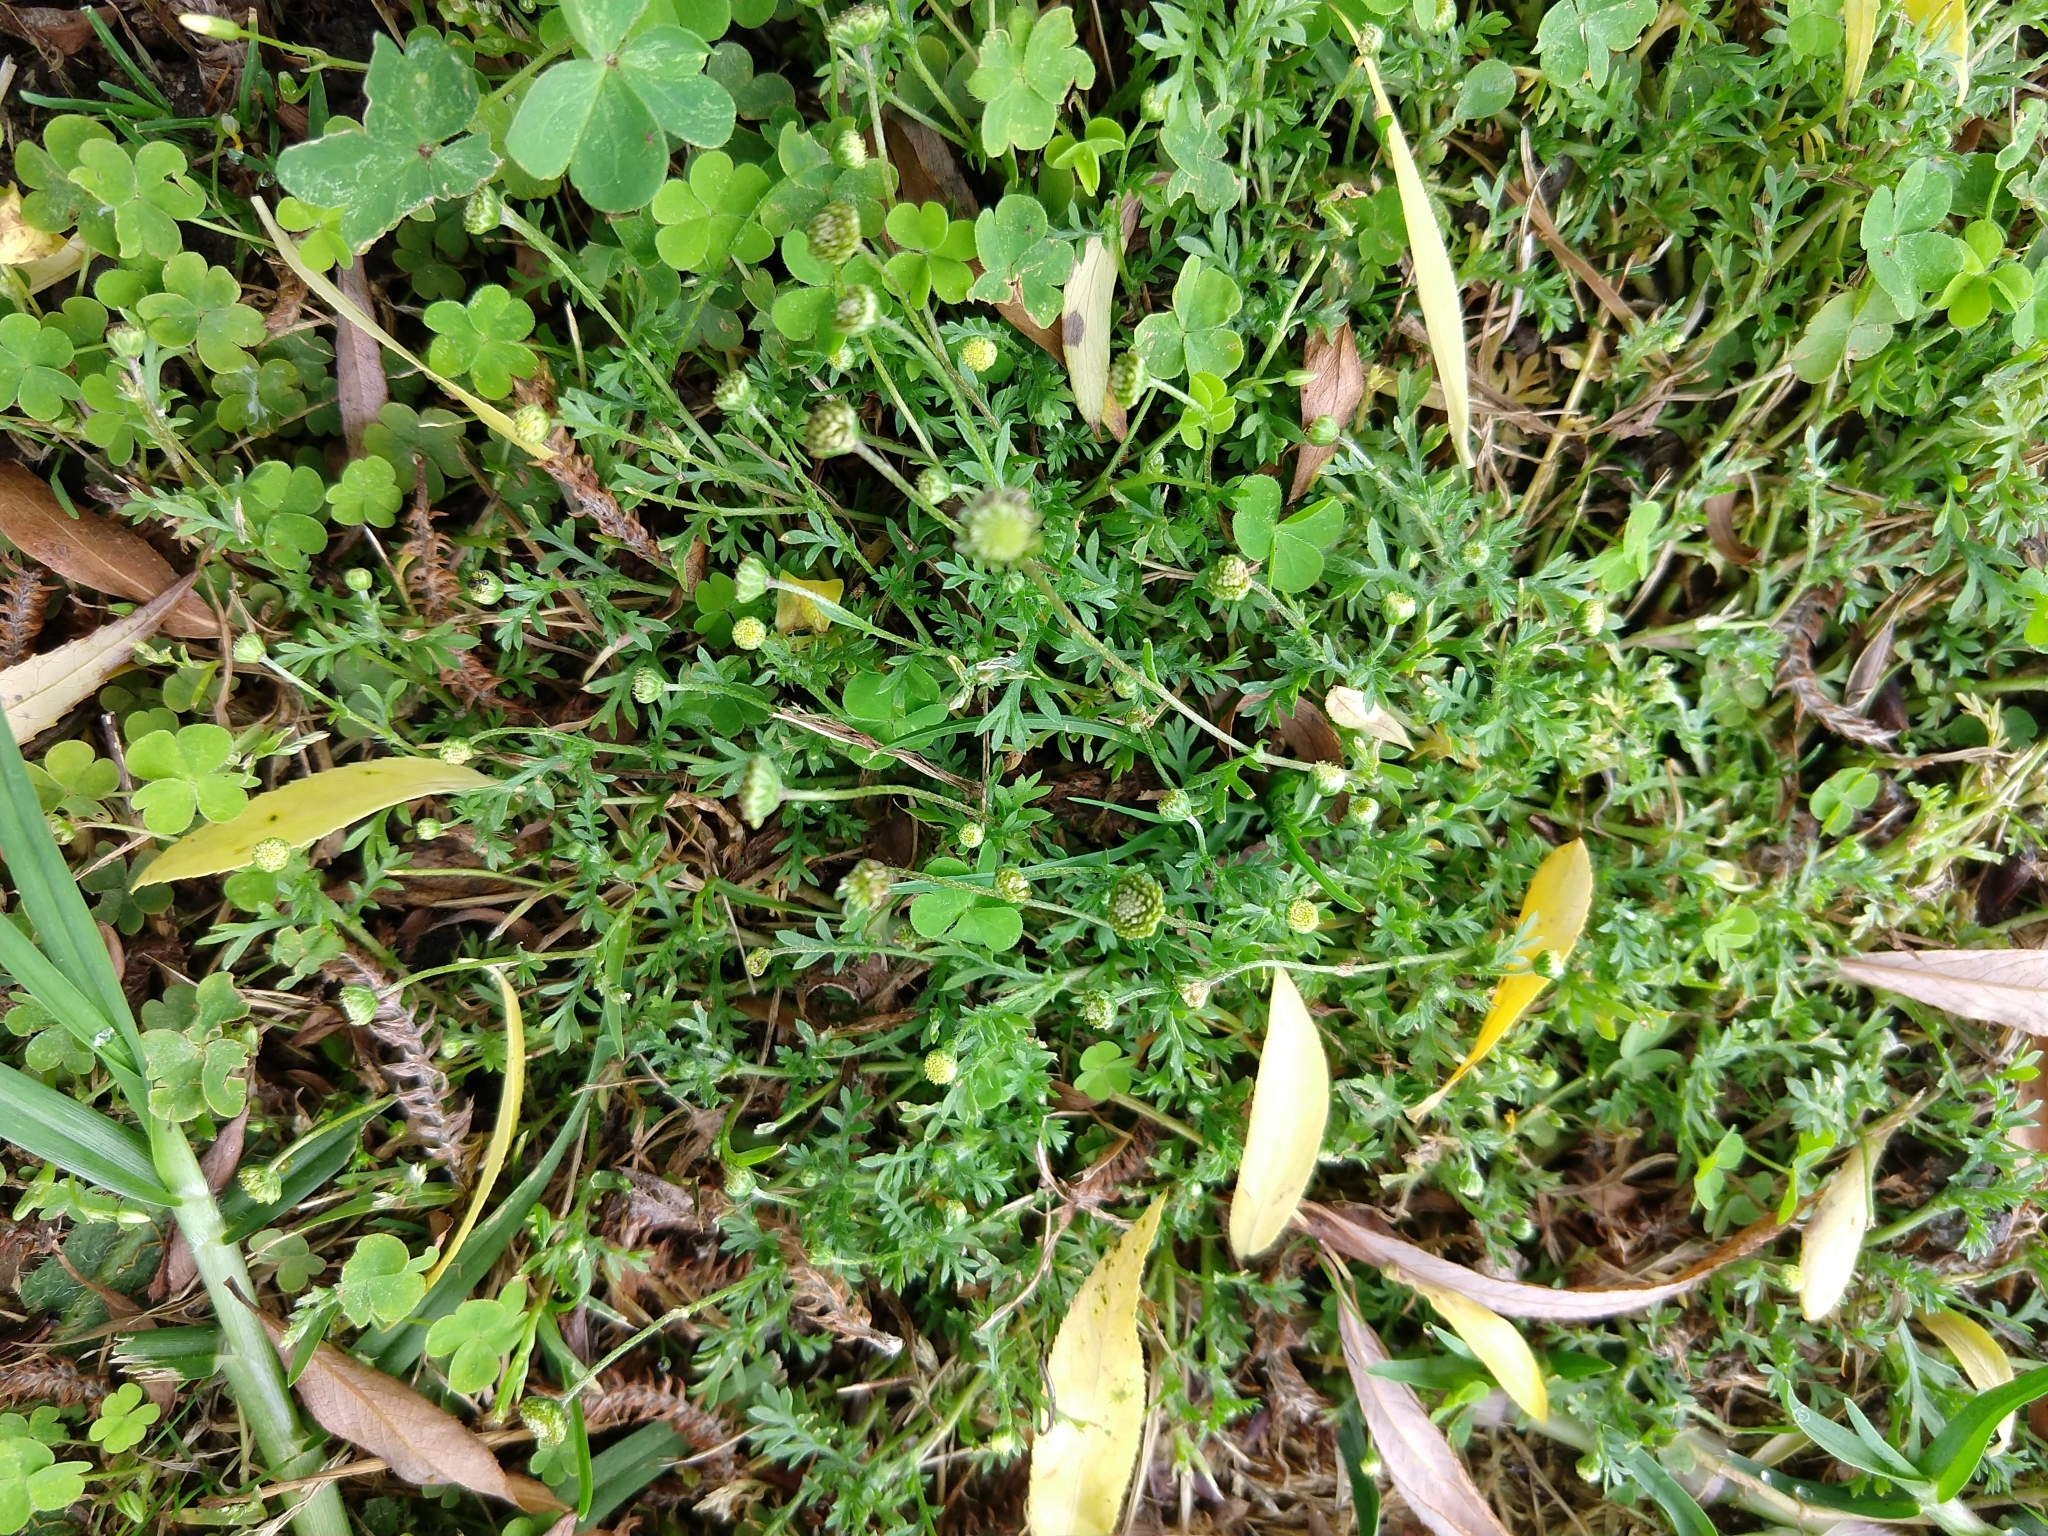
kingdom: Plantae
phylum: Tracheophyta
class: Magnoliopsida
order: Asterales
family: Asteraceae
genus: Cotula
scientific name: Cotula australis
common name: Australian waterbuttons
